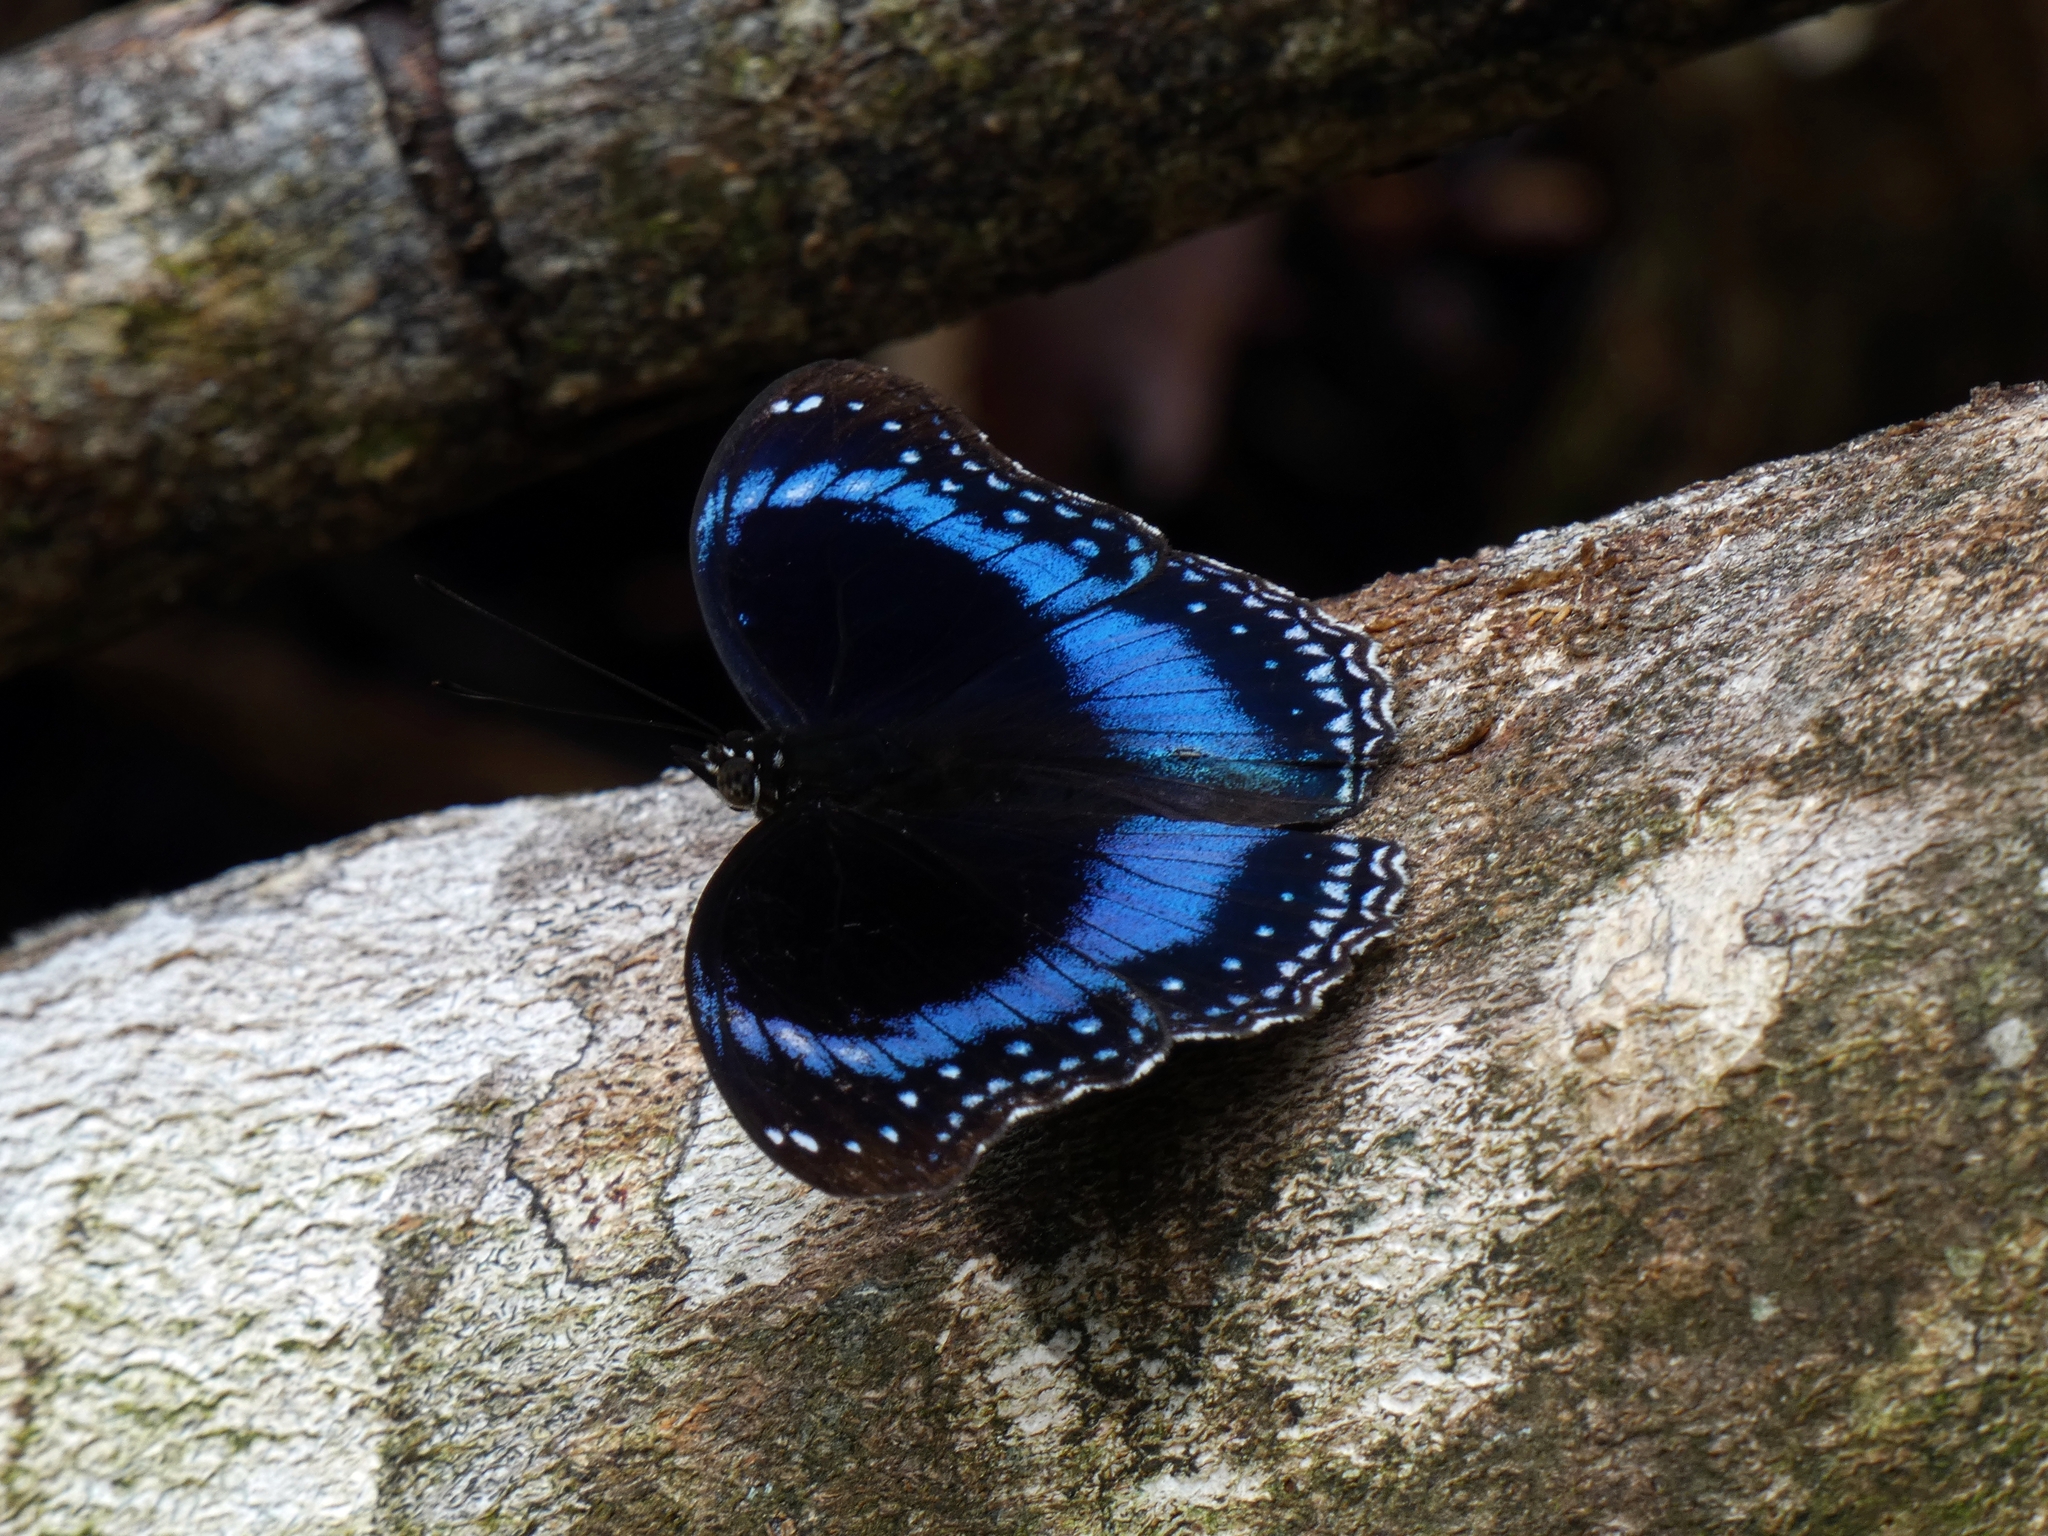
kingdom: Animalia
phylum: Arthropoda
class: Insecta
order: Lepidoptera
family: Nymphalidae
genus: Hypolimnas
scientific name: Hypolimnas alimena
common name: Blue-banded eggfly
